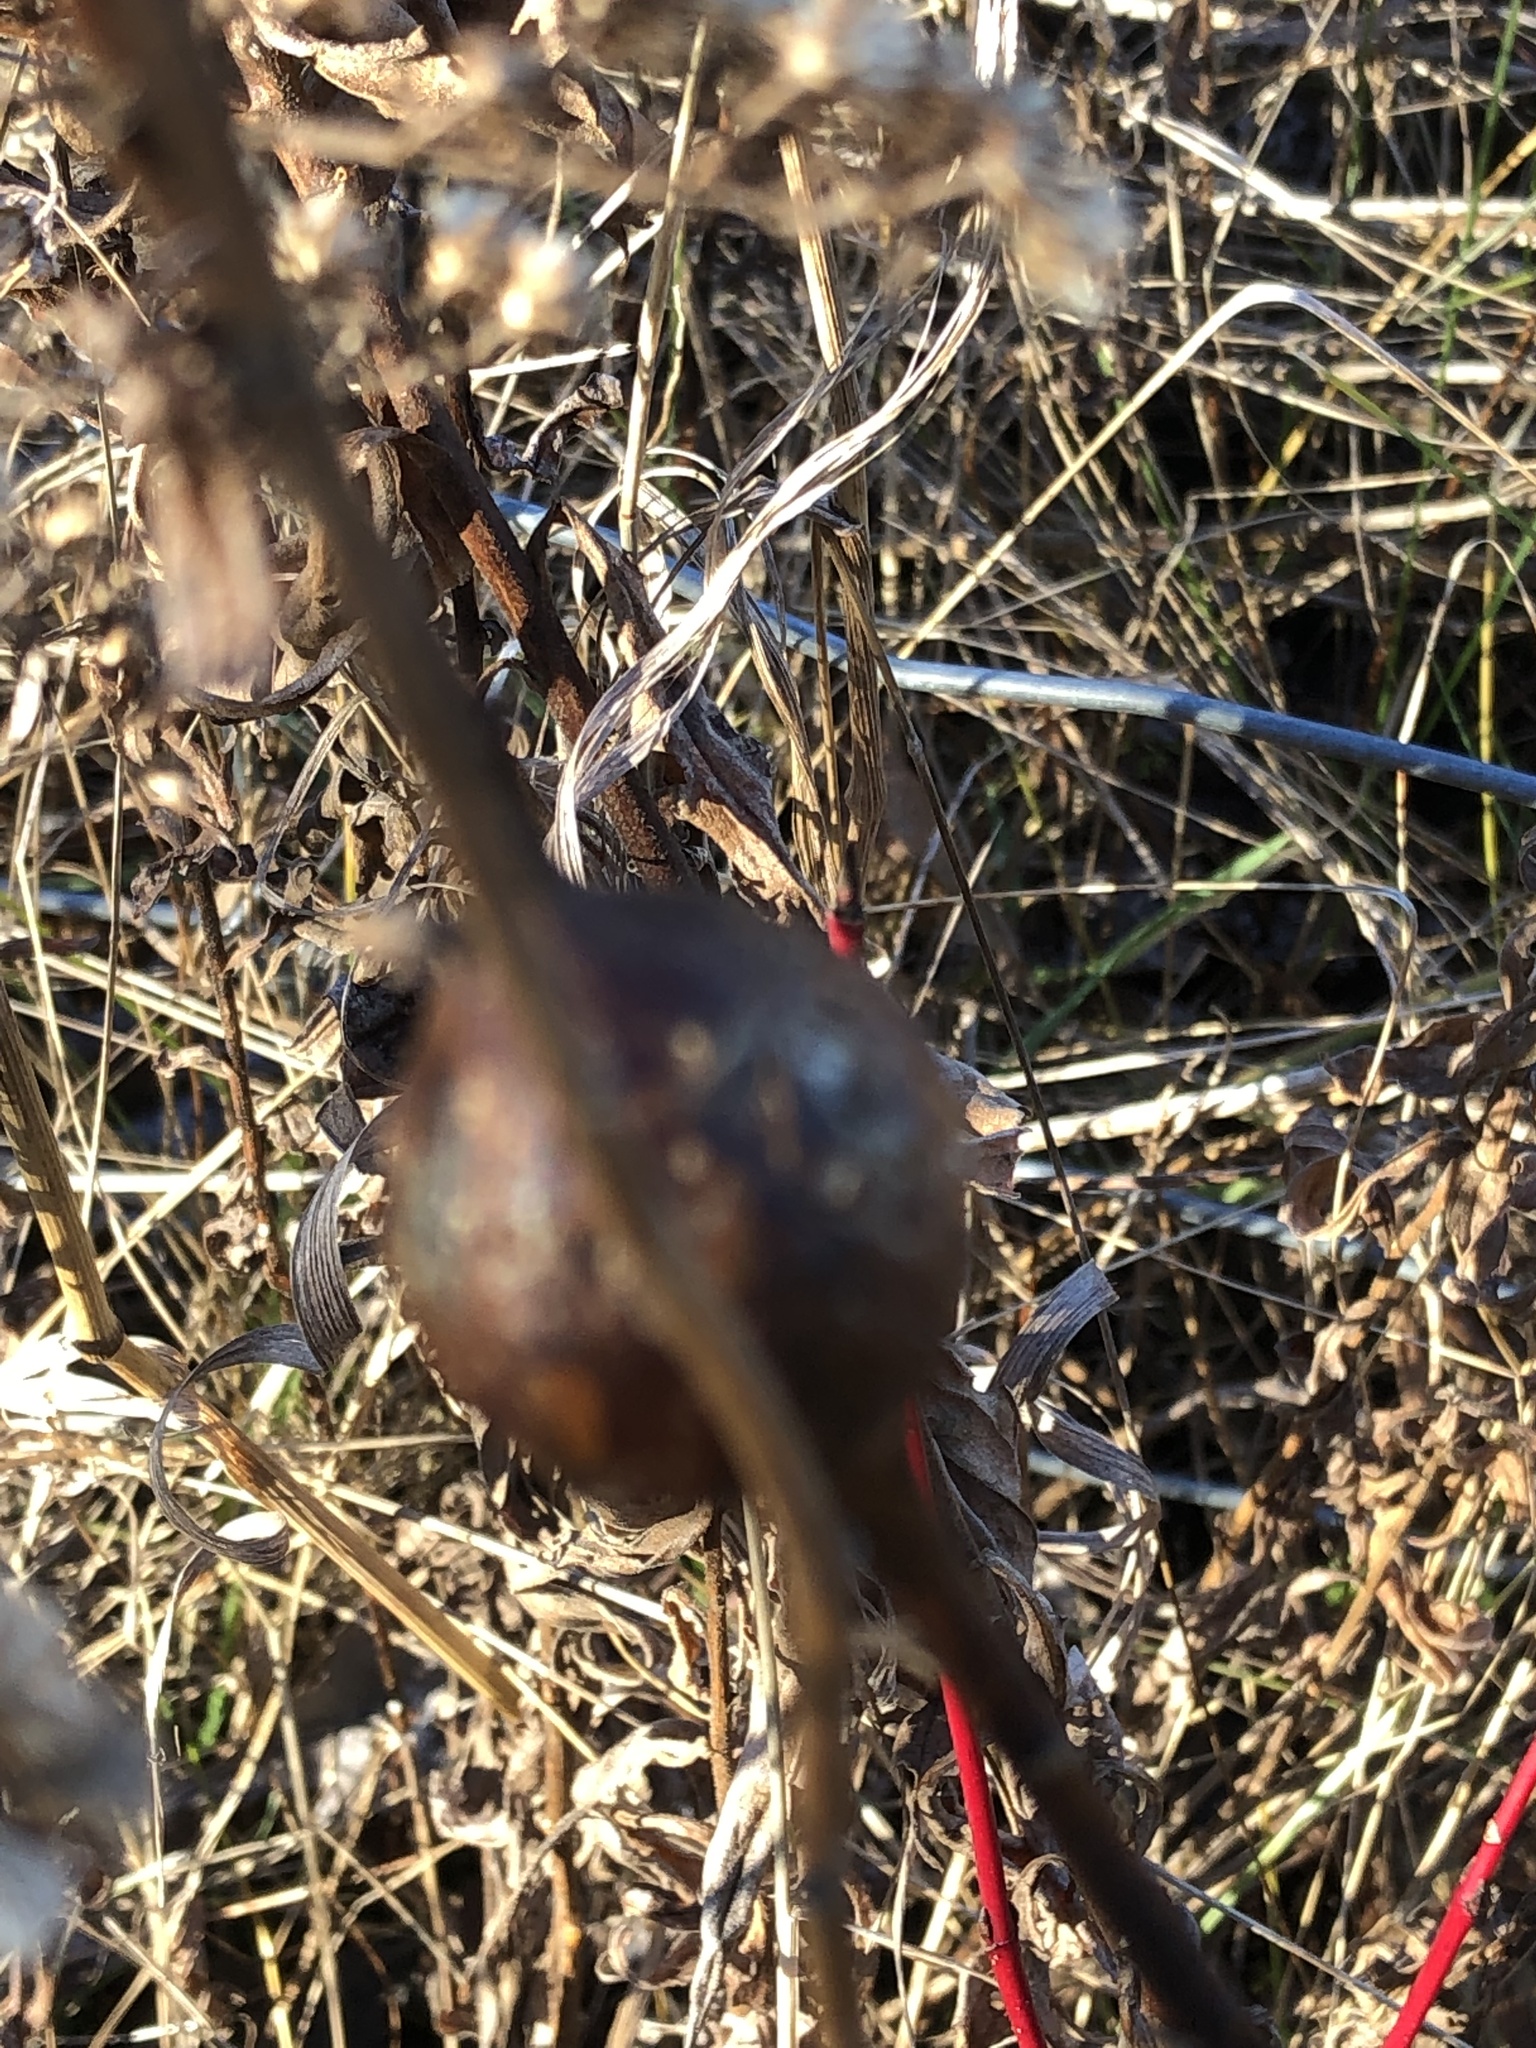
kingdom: Animalia
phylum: Arthropoda
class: Insecta
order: Diptera
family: Tephritidae
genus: Eurosta
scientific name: Eurosta solidaginis
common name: Goldenrod gall fly
